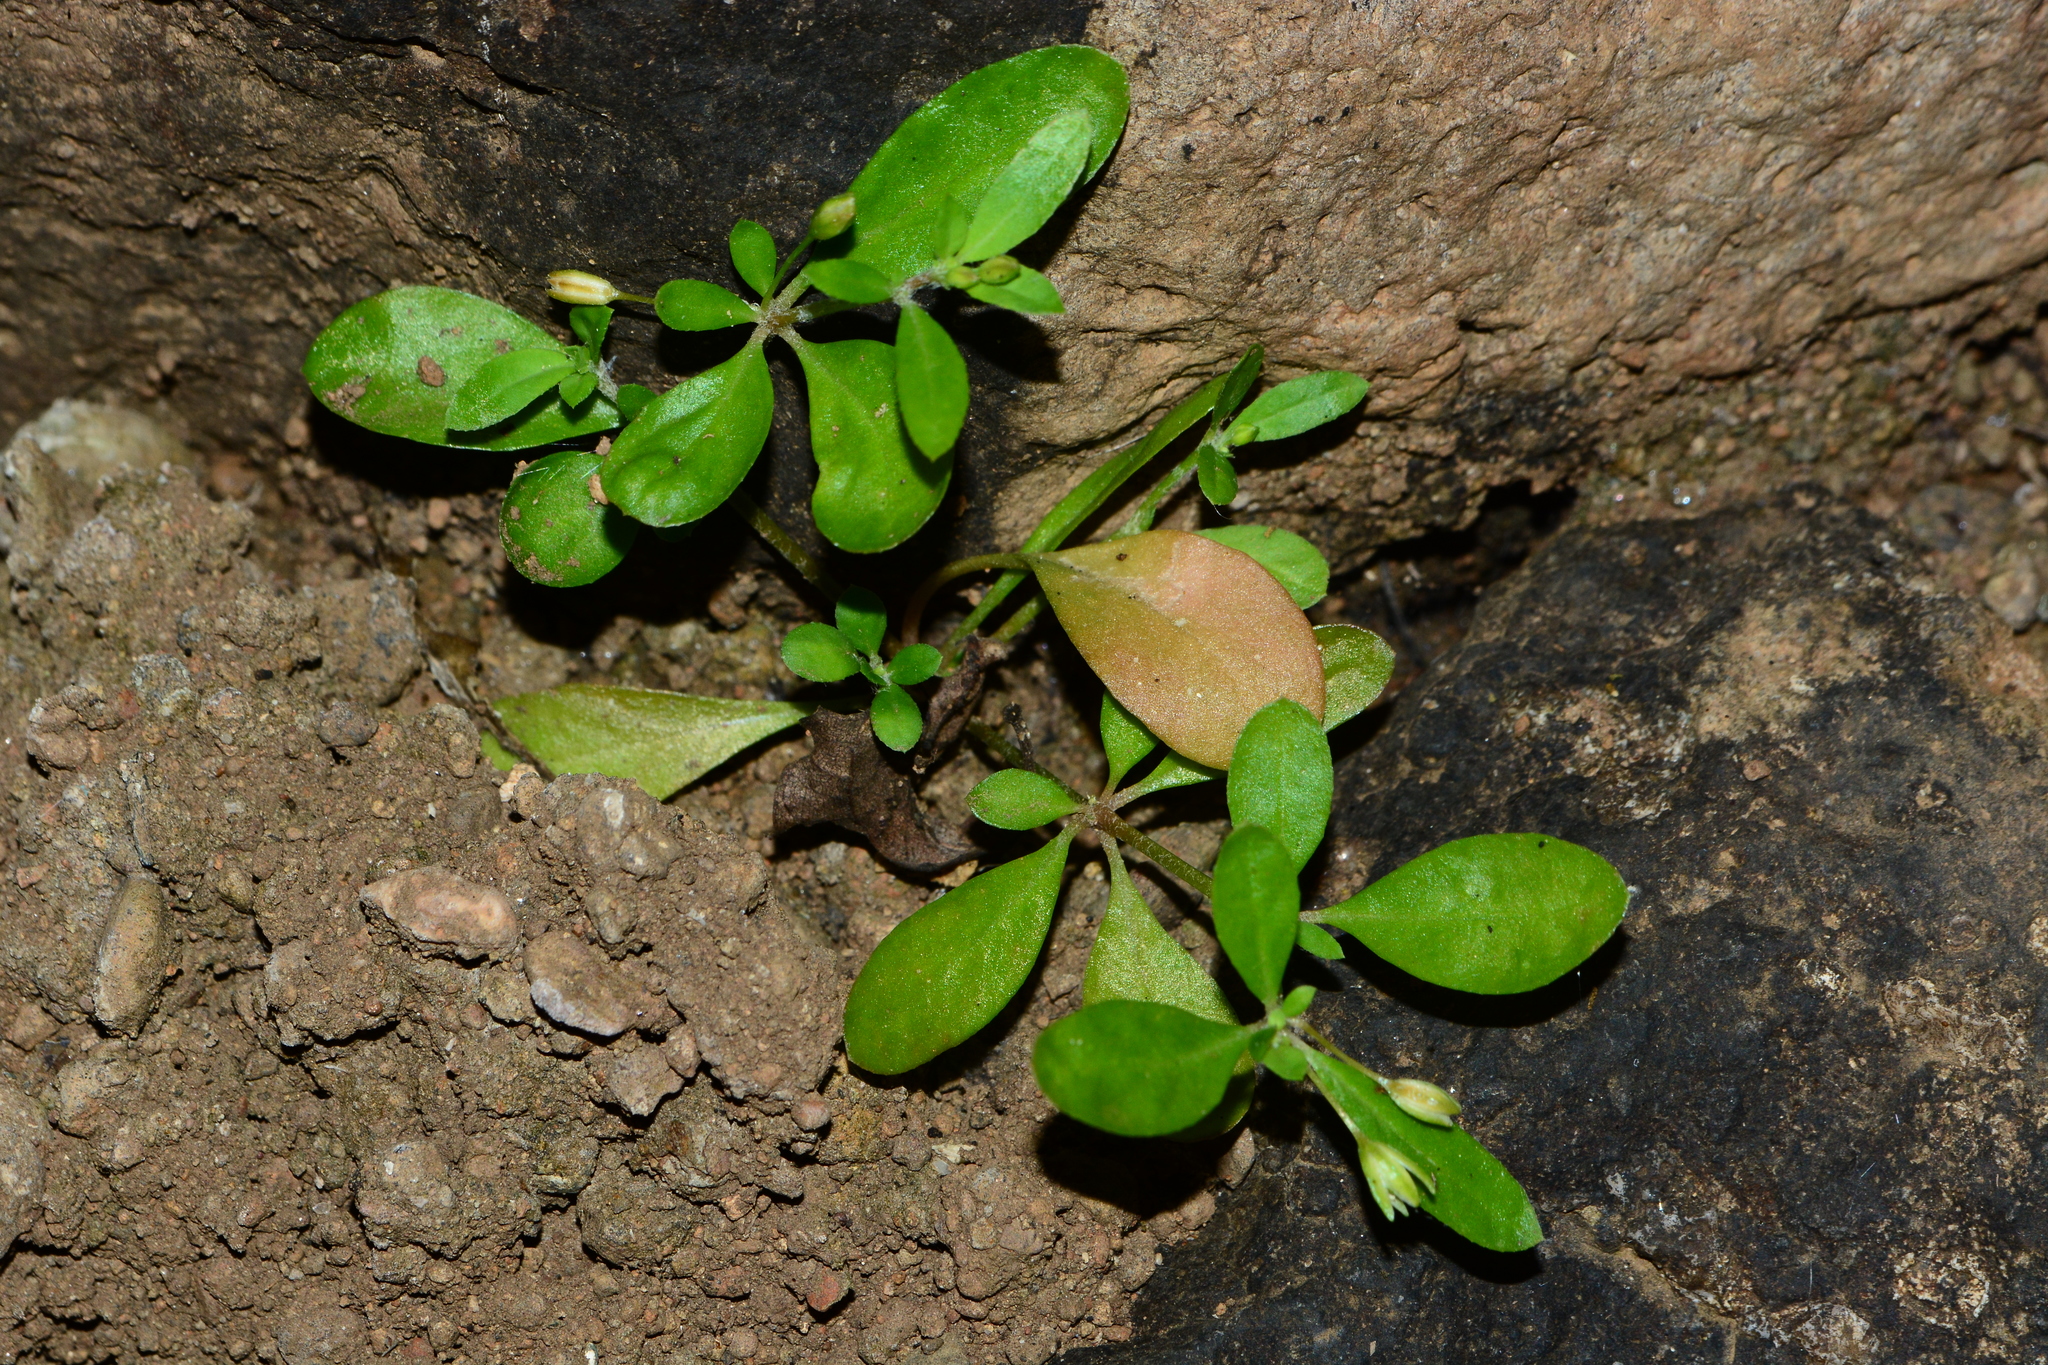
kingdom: Plantae
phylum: Tracheophyta
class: Magnoliopsida
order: Caryophyllales
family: Molluginaceae
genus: Trigastrotheca
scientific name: Trigastrotheca pentaphylla
